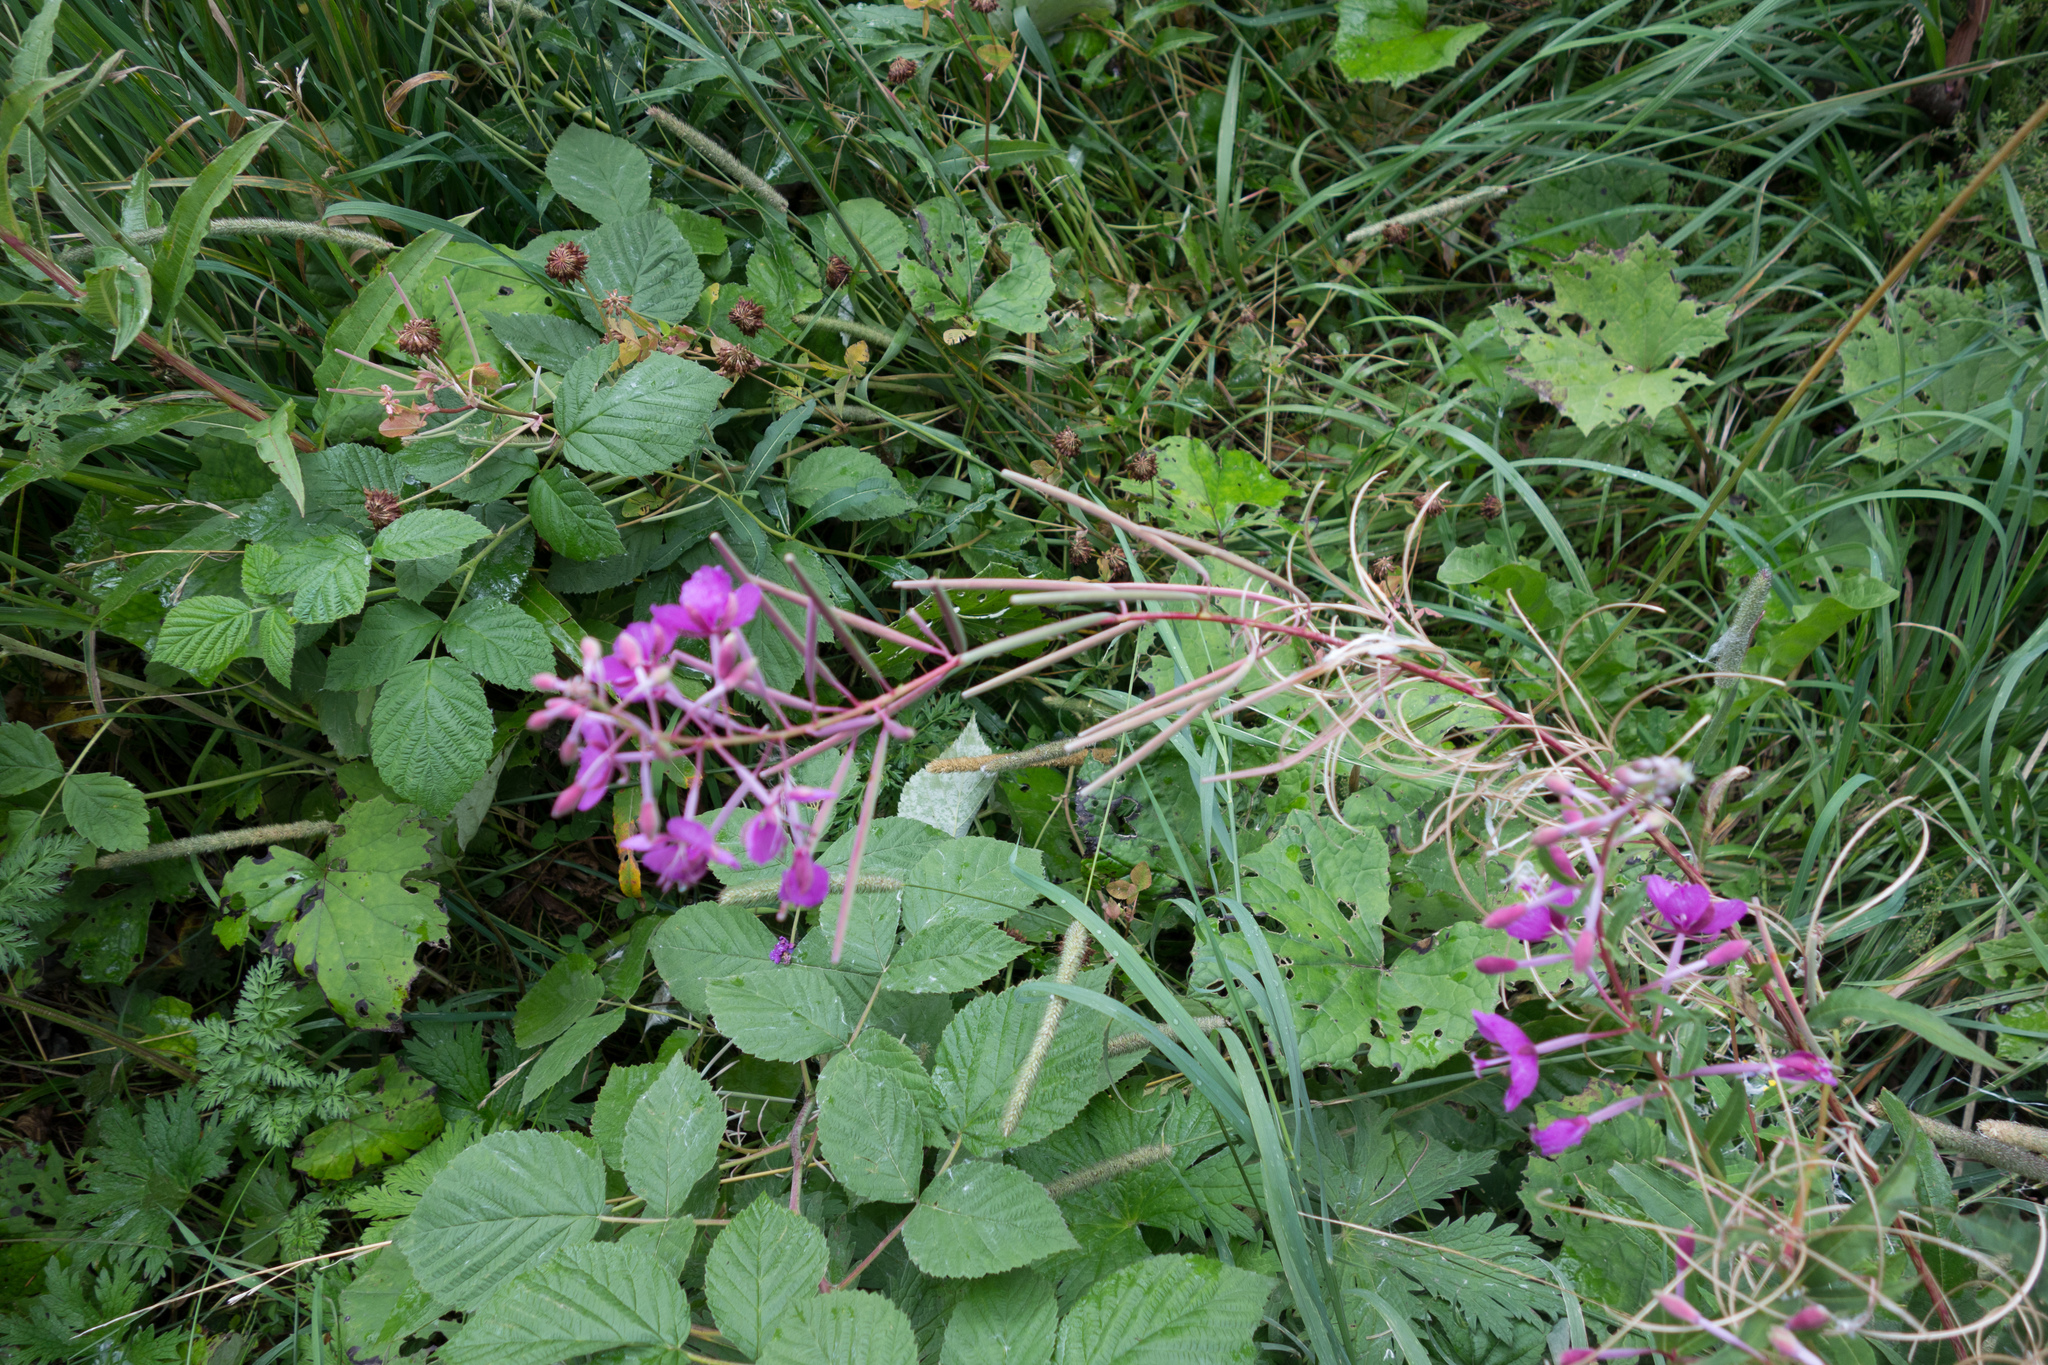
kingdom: Plantae
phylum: Tracheophyta
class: Magnoliopsida
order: Myrtales
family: Onagraceae
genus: Chamaenerion
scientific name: Chamaenerion angustifolium
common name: Fireweed
